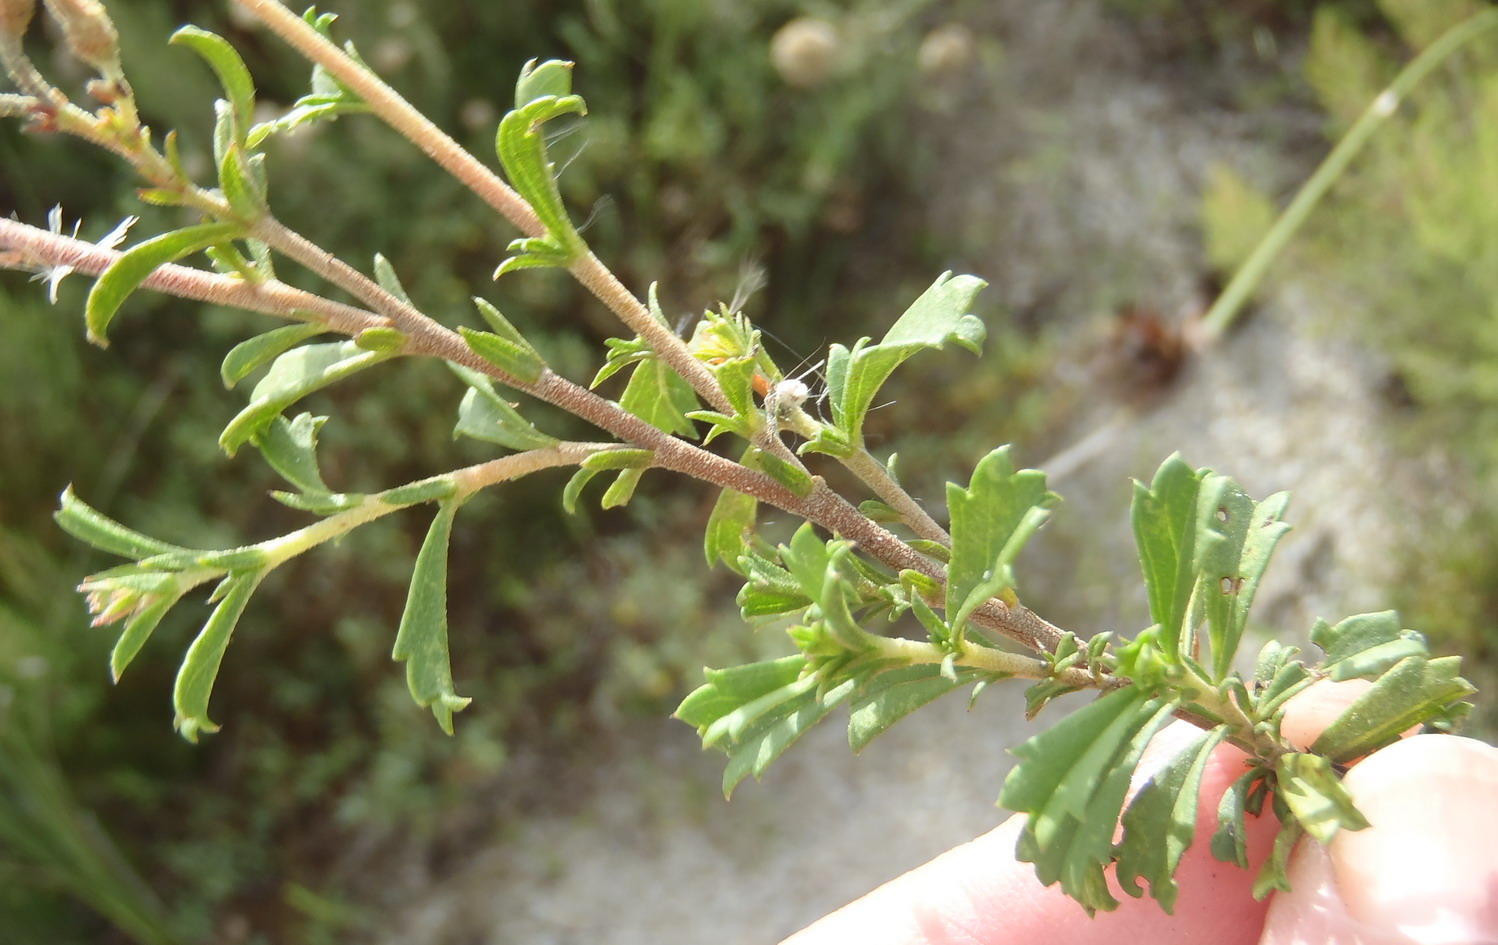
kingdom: Plantae
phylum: Tracheophyta
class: Magnoliopsida
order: Malvales
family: Malvaceae
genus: Hermannia
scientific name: Hermannia flammea
